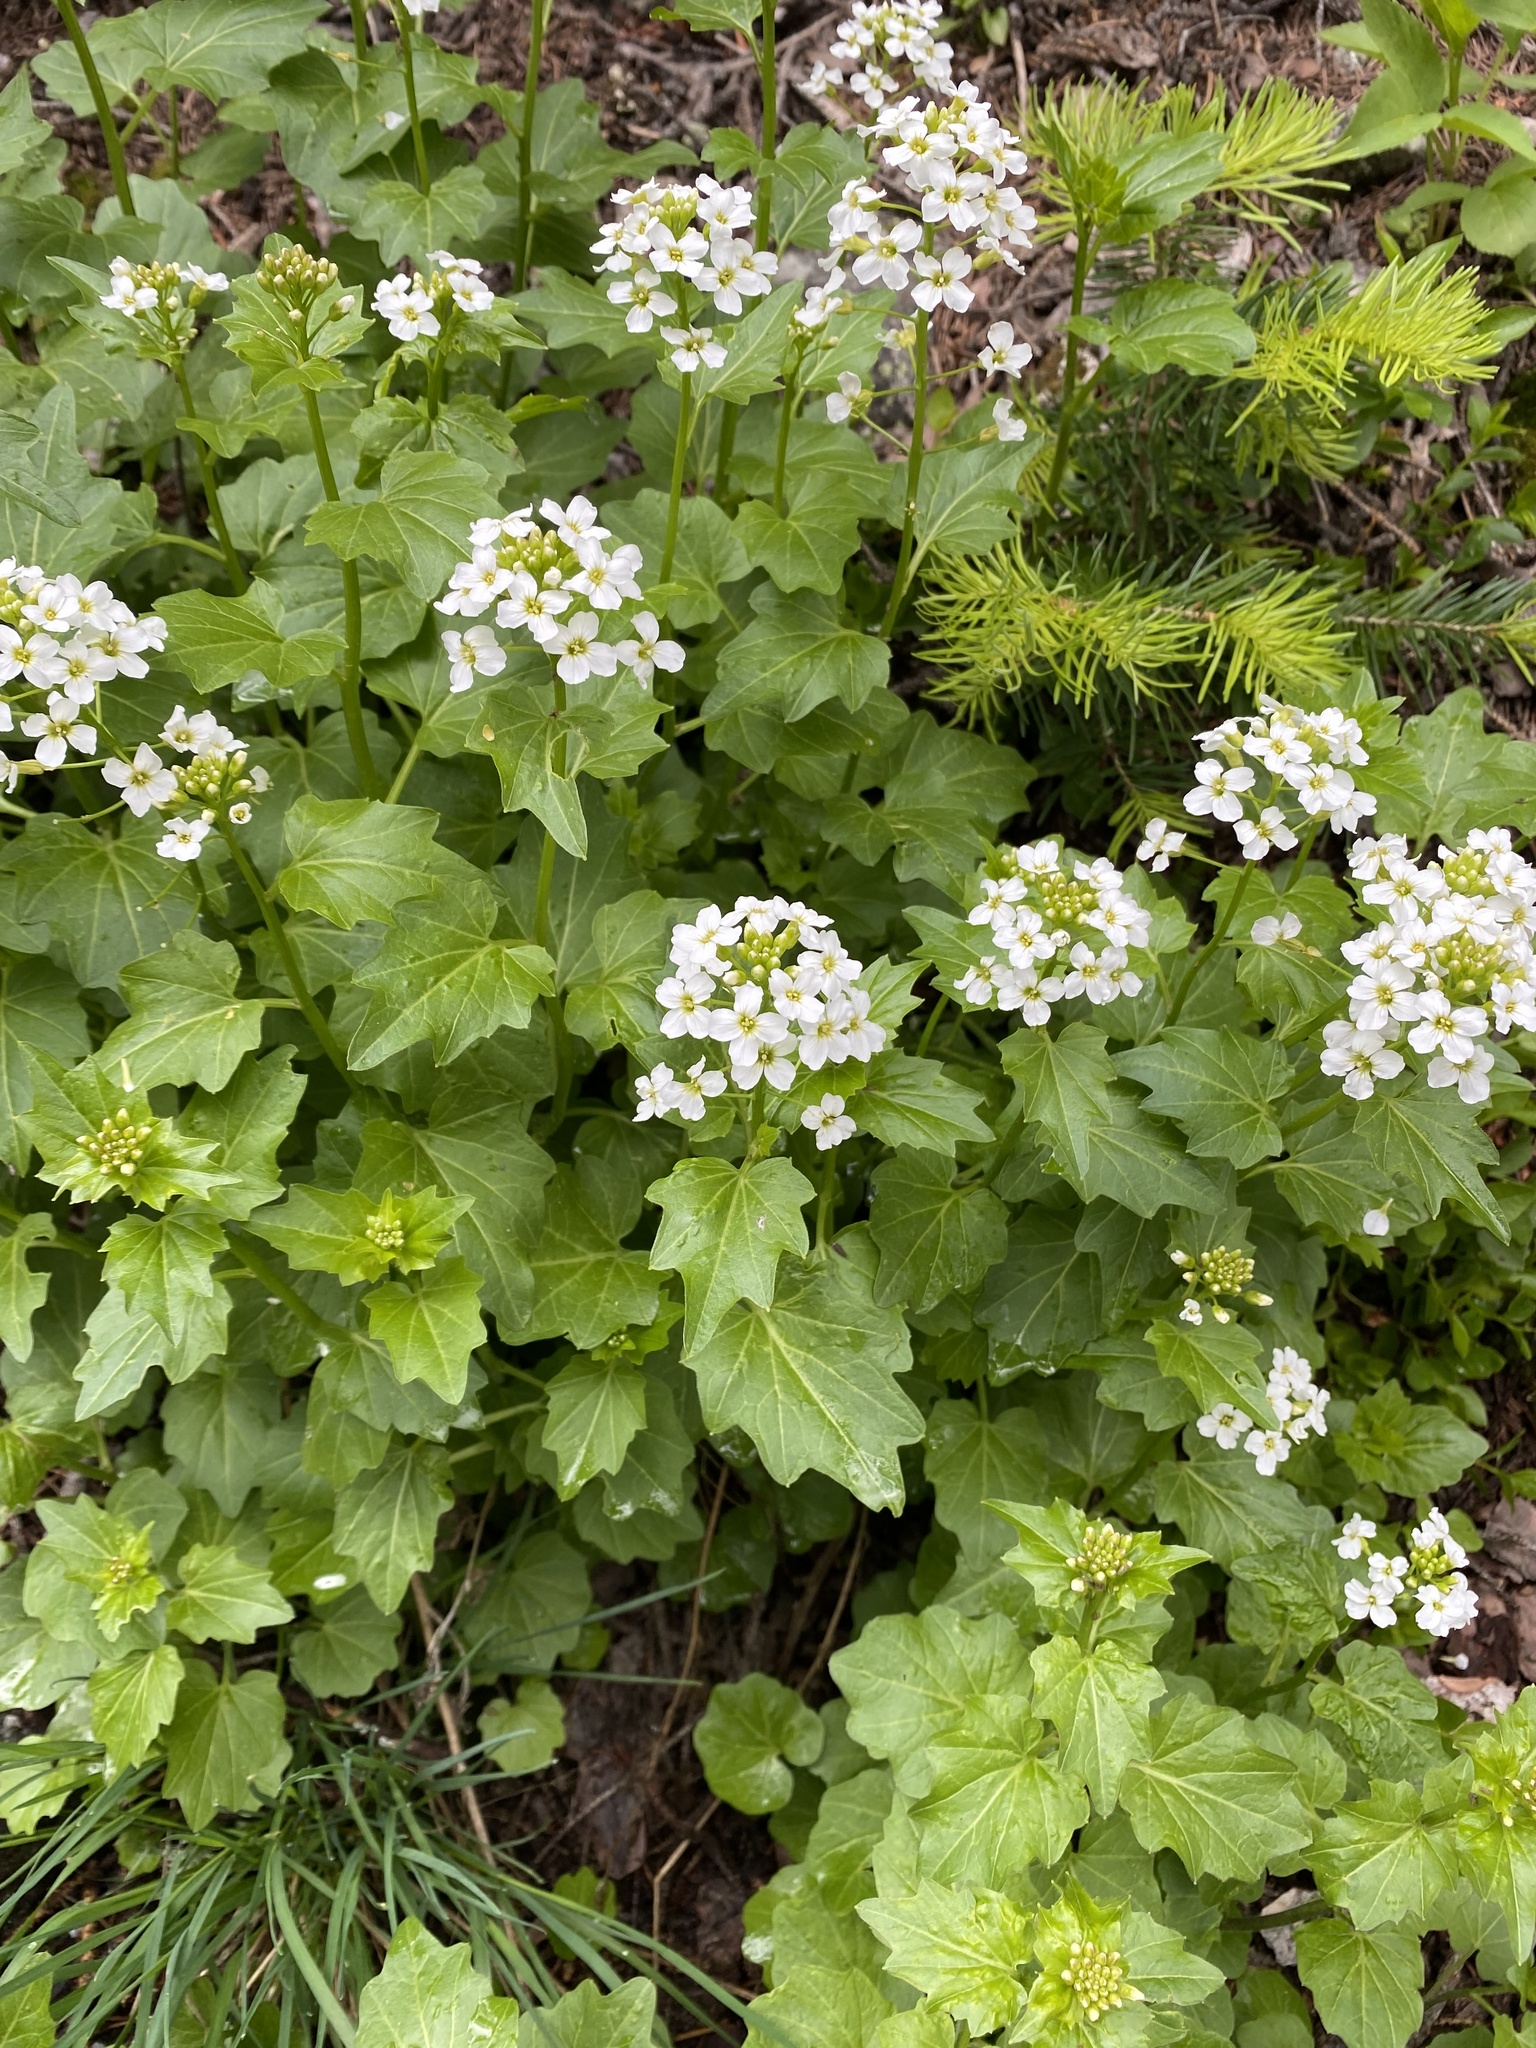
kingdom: Plantae
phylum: Tracheophyta
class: Magnoliopsida
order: Brassicales
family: Brassicaceae
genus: Cardamine
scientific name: Cardamine cordifolia
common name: Heart-leaf bittercress
